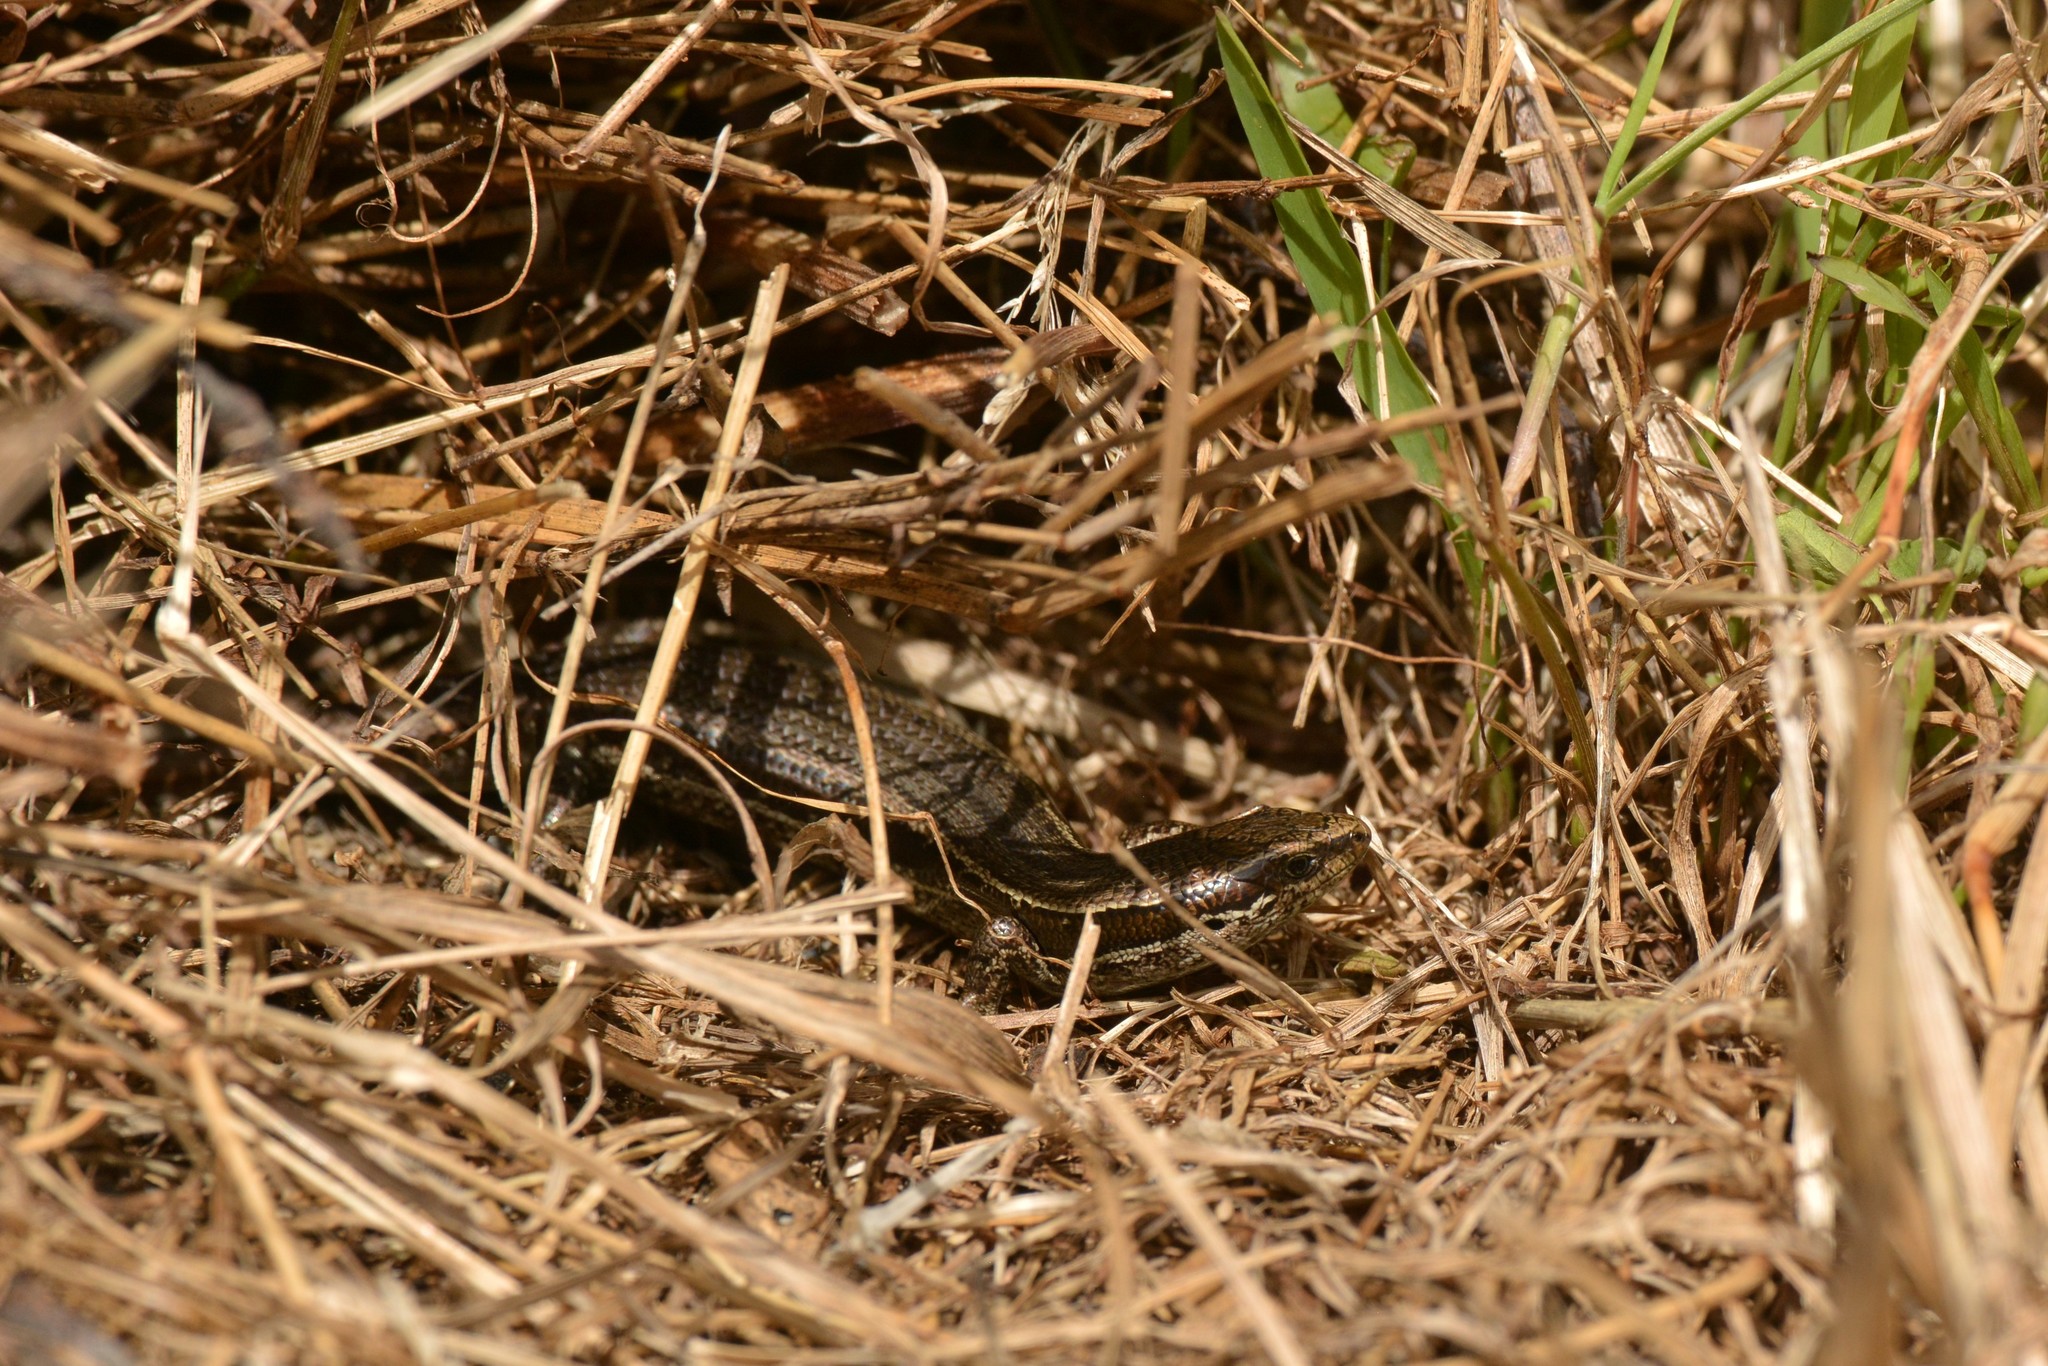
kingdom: Animalia
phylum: Chordata
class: Squamata
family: Scincidae
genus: Oligosoma
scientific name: Oligosoma polychroma
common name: Common new zealand skink
